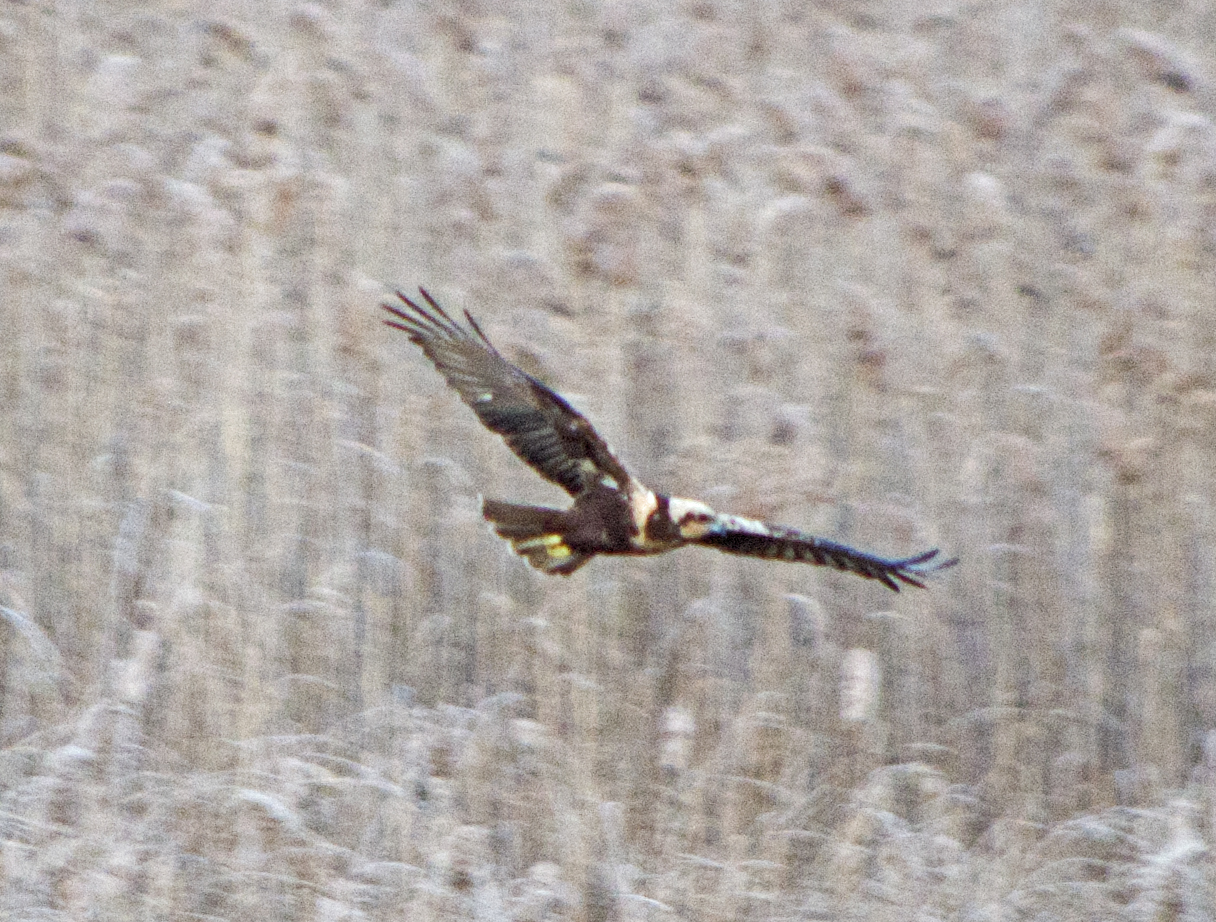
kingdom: Animalia
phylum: Chordata
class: Aves
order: Accipitriformes
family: Accipitridae
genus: Circus
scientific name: Circus aeruginosus
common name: Western marsh harrier
